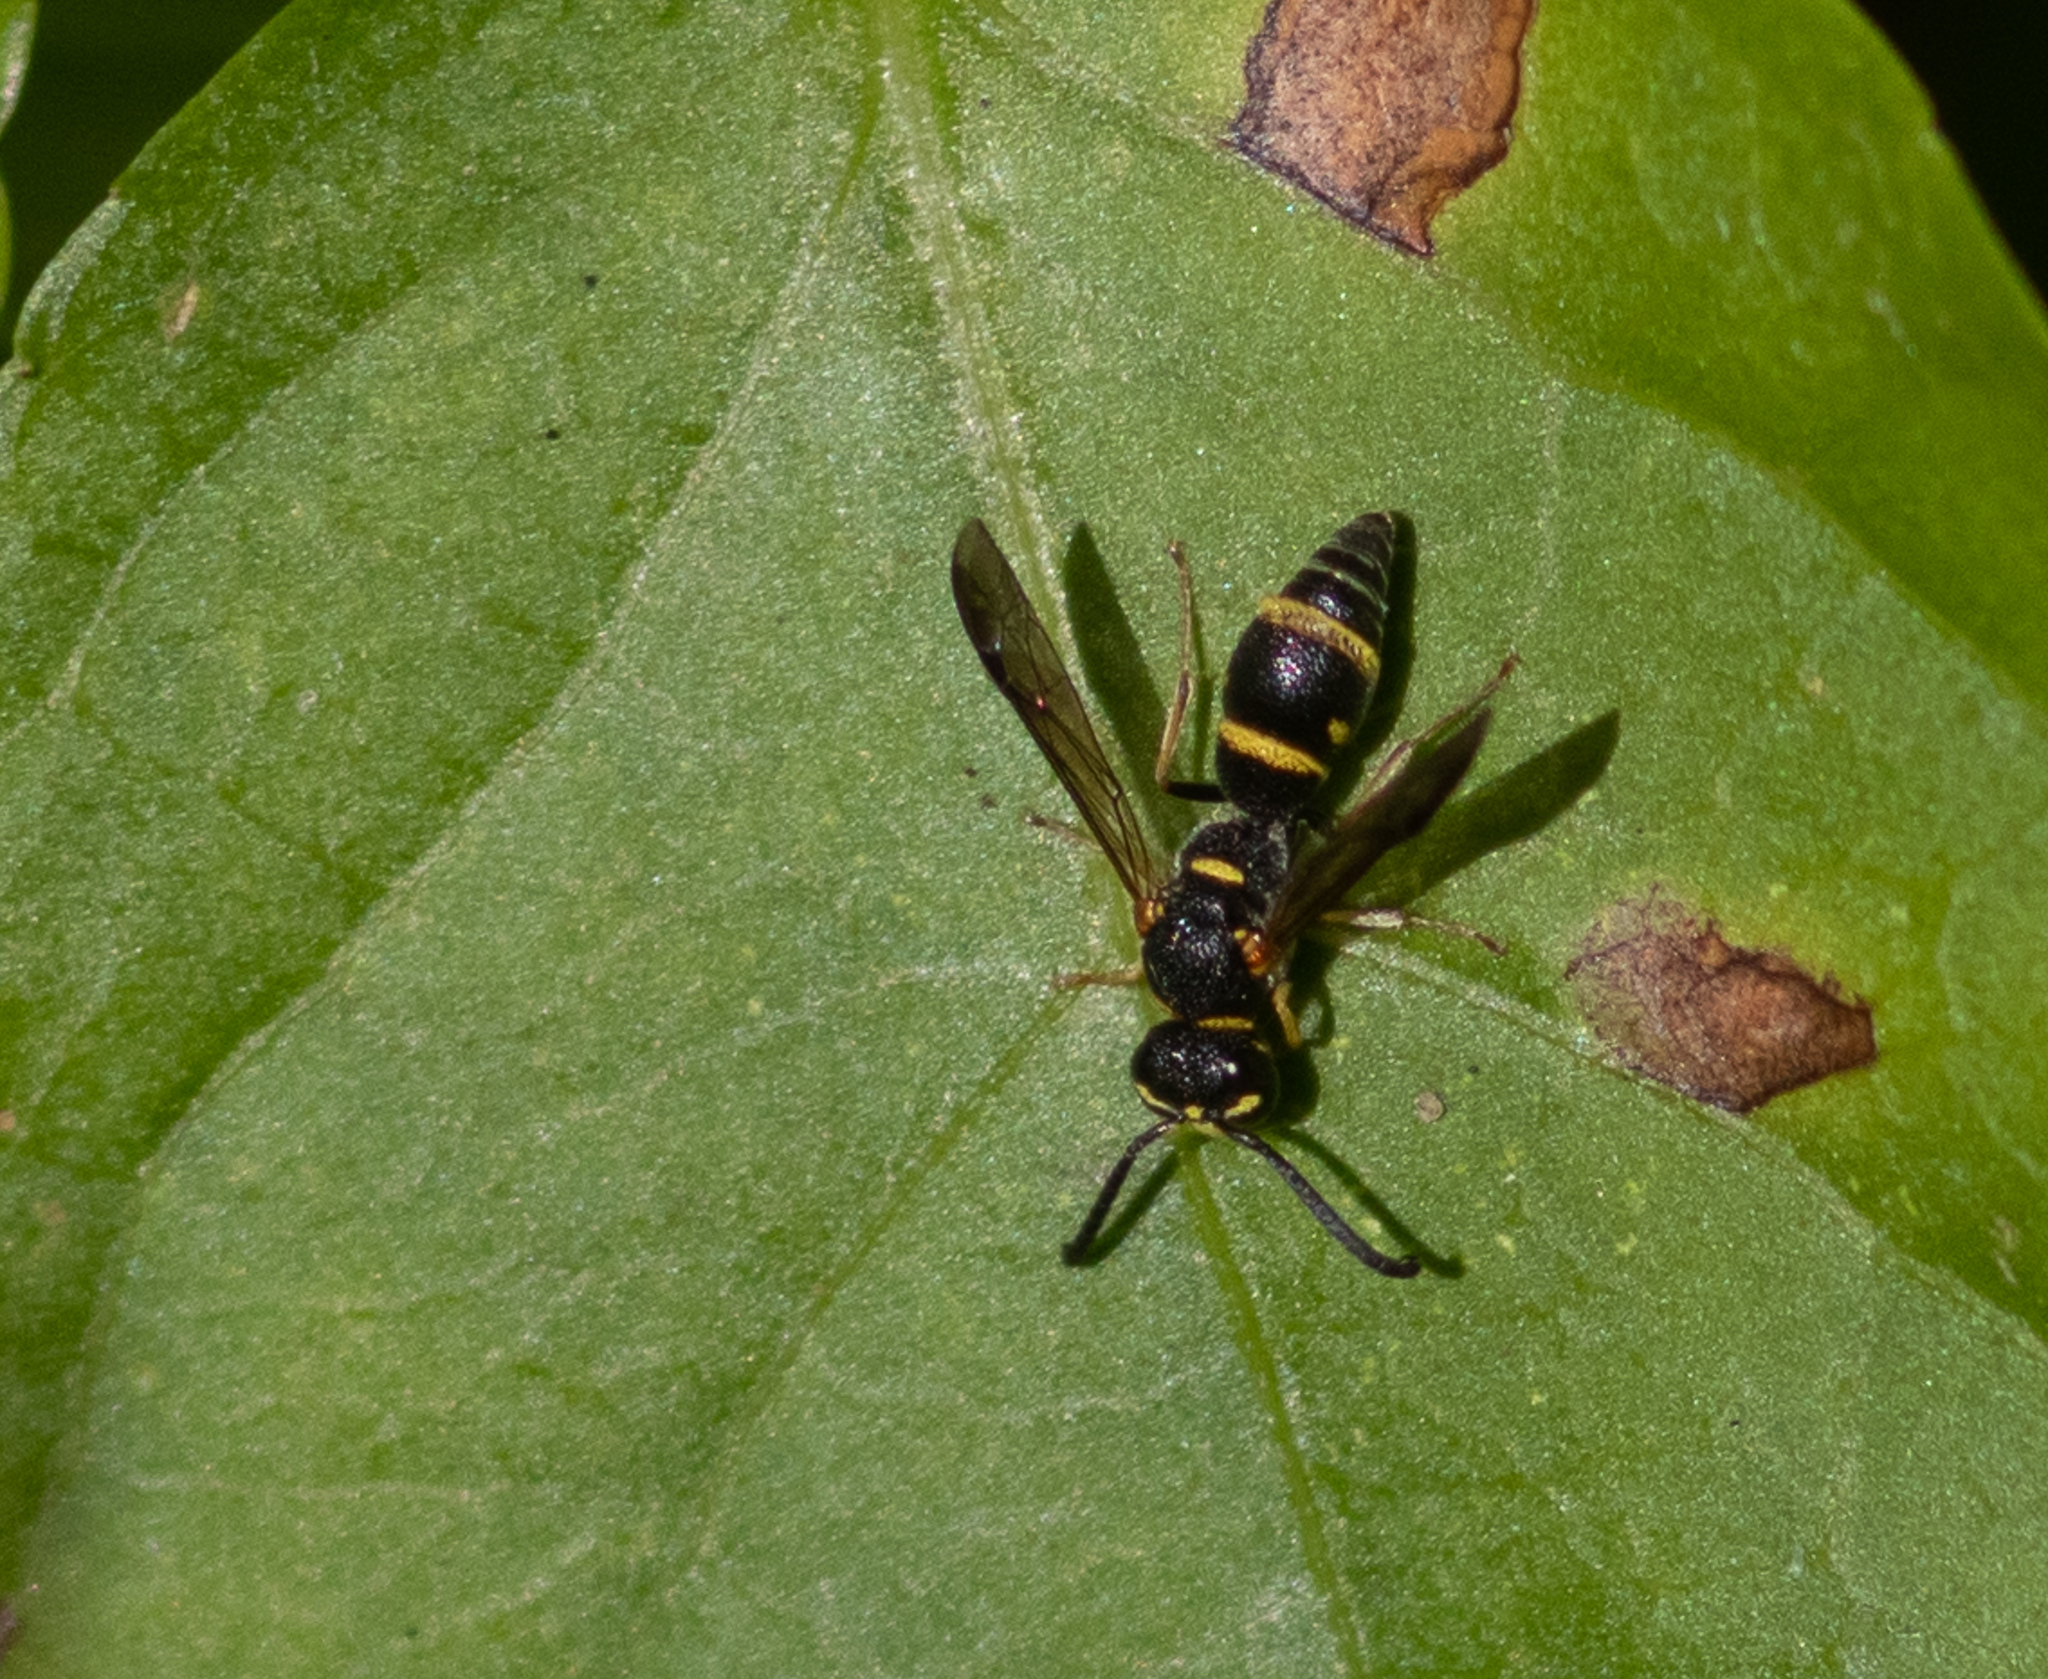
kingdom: Animalia
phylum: Arthropoda
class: Insecta
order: Hymenoptera
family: Eumenidae
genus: Parancistrocerus
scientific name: Parancistrocerus
